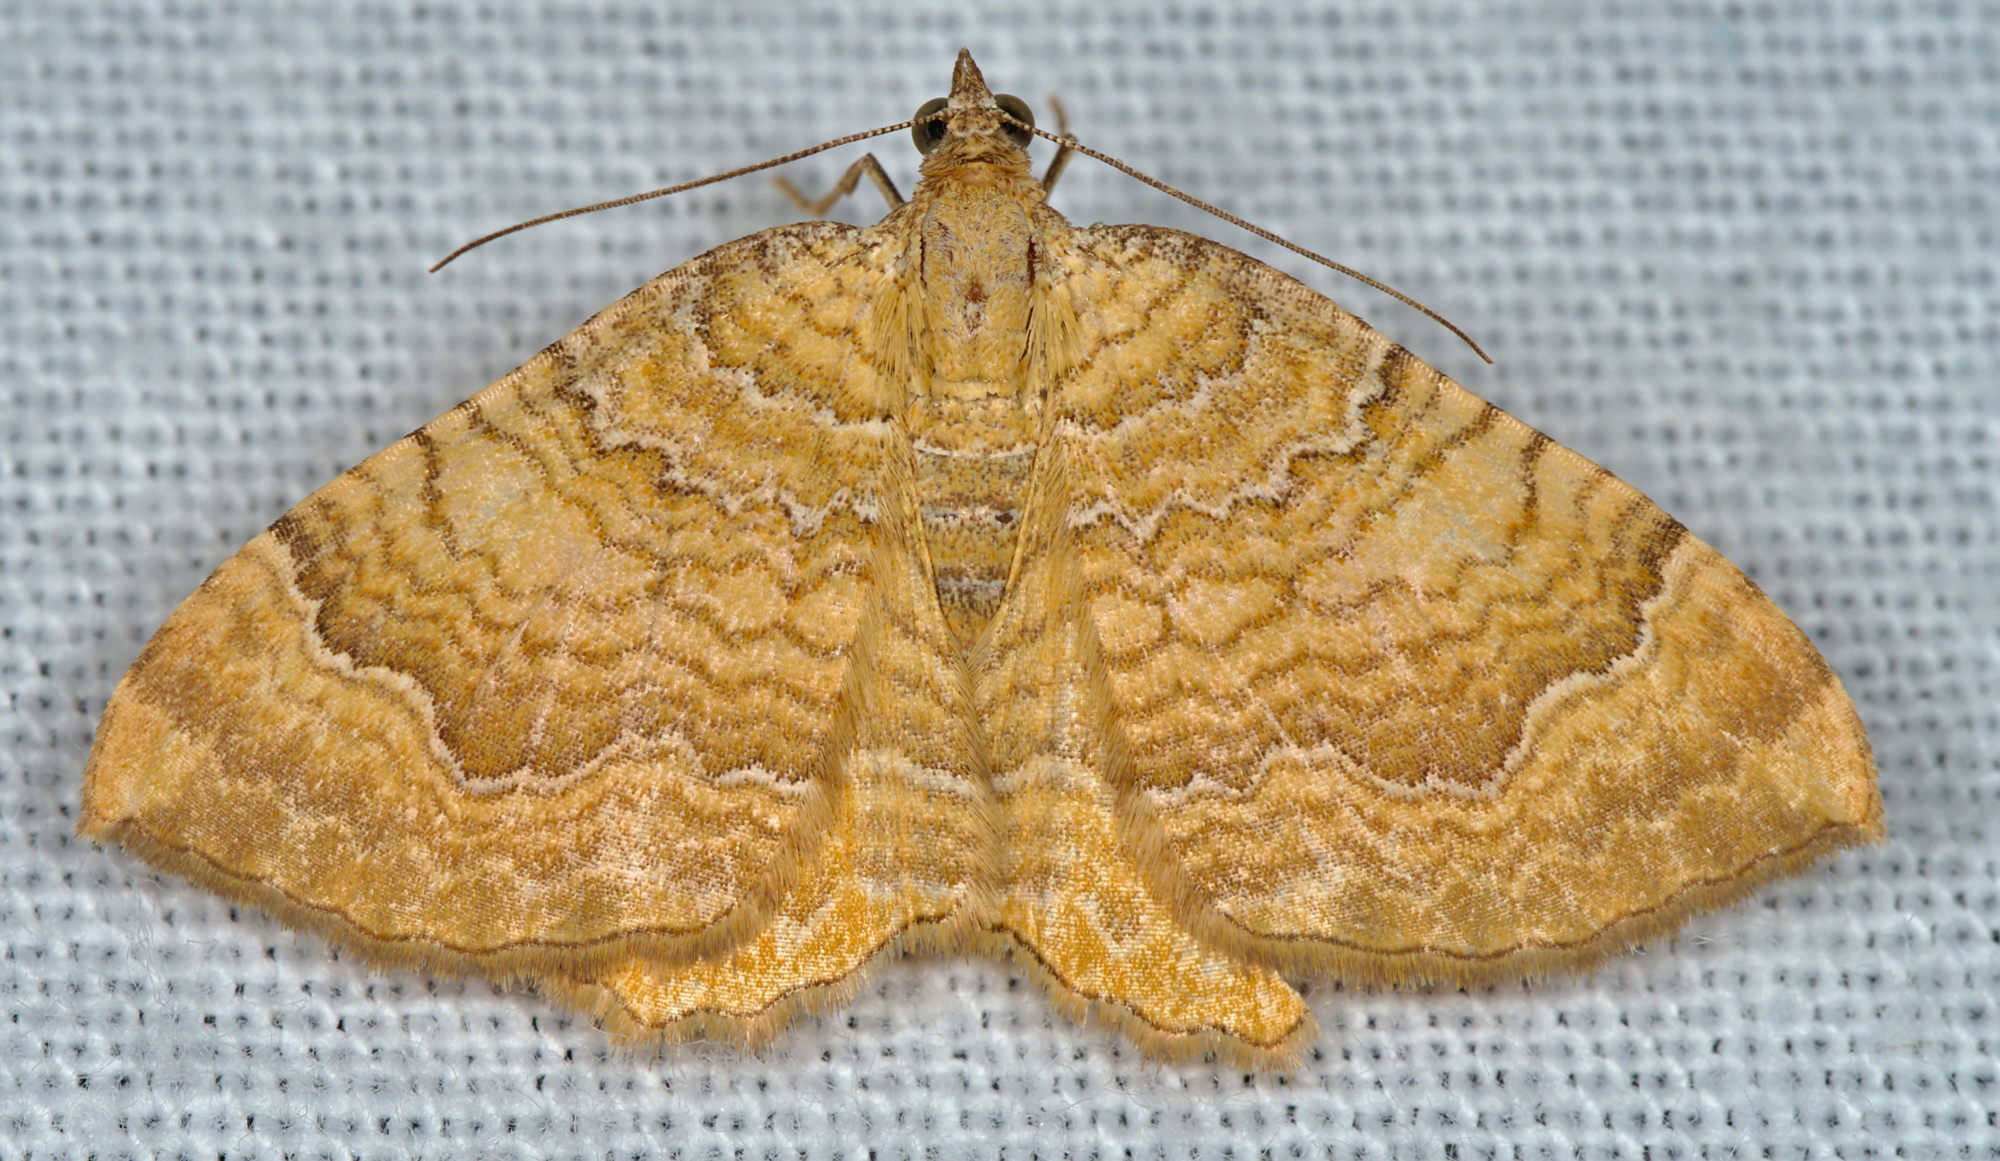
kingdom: Animalia
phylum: Arthropoda
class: Insecta
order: Lepidoptera
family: Geometridae
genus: Camptogramma
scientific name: Camptogramma bilineata
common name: Yellow shell
